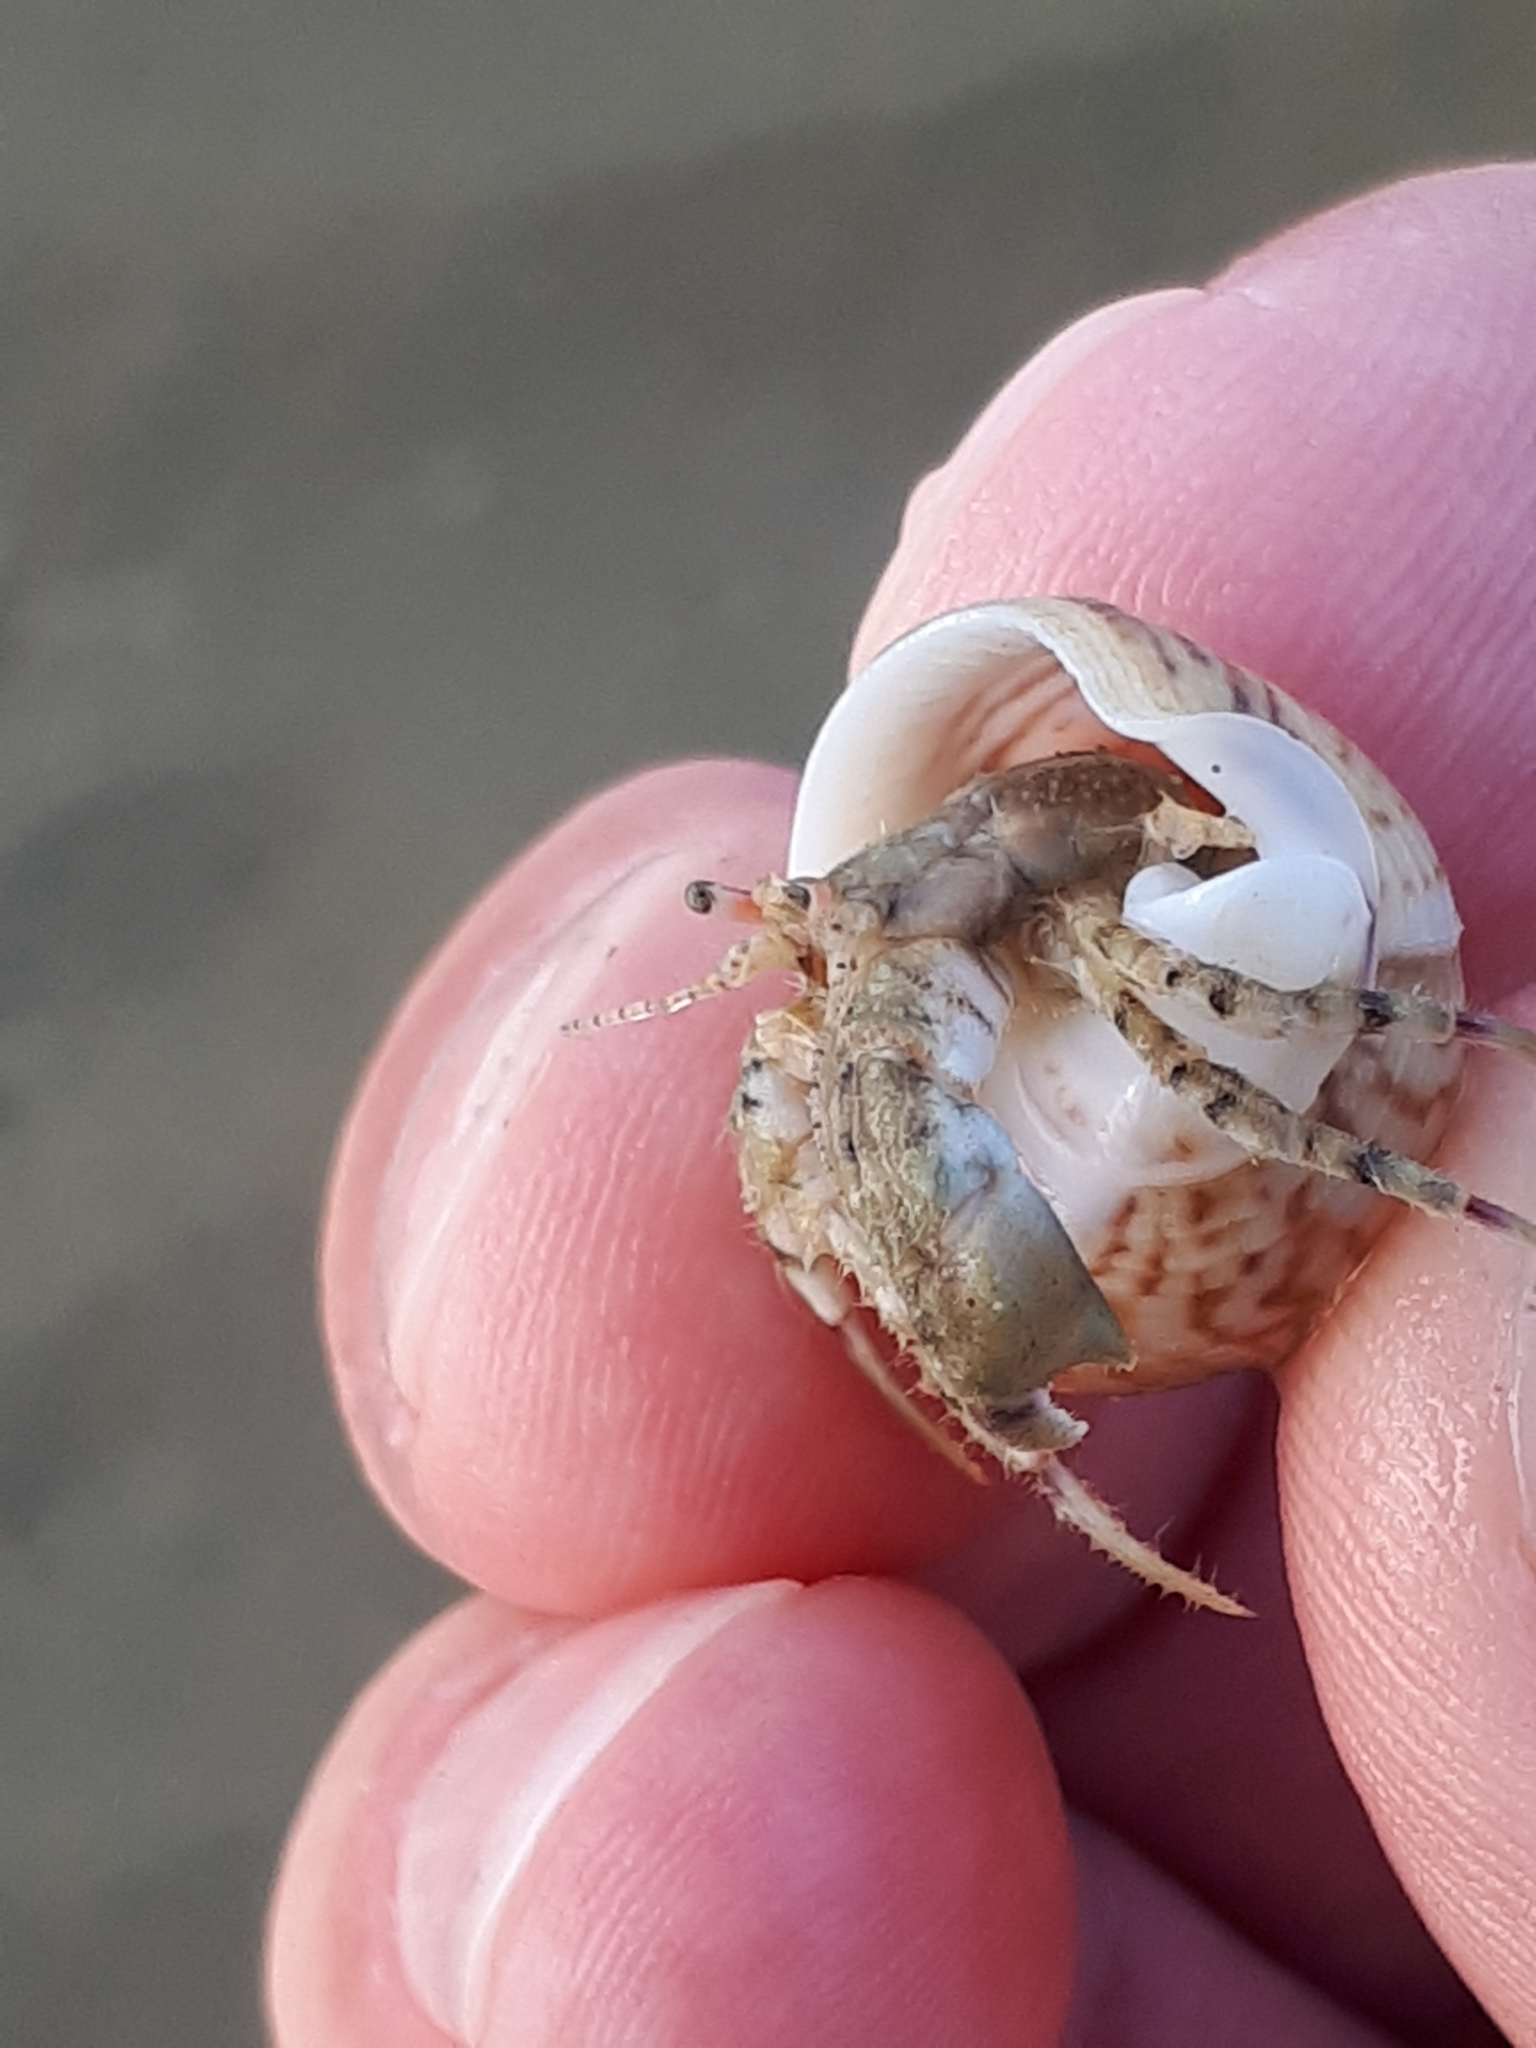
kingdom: Animalia
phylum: Arthropoda
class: Malacostraca
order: Decapoda
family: Diogenidae
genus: Diogenes
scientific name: Diogenes pugilator
